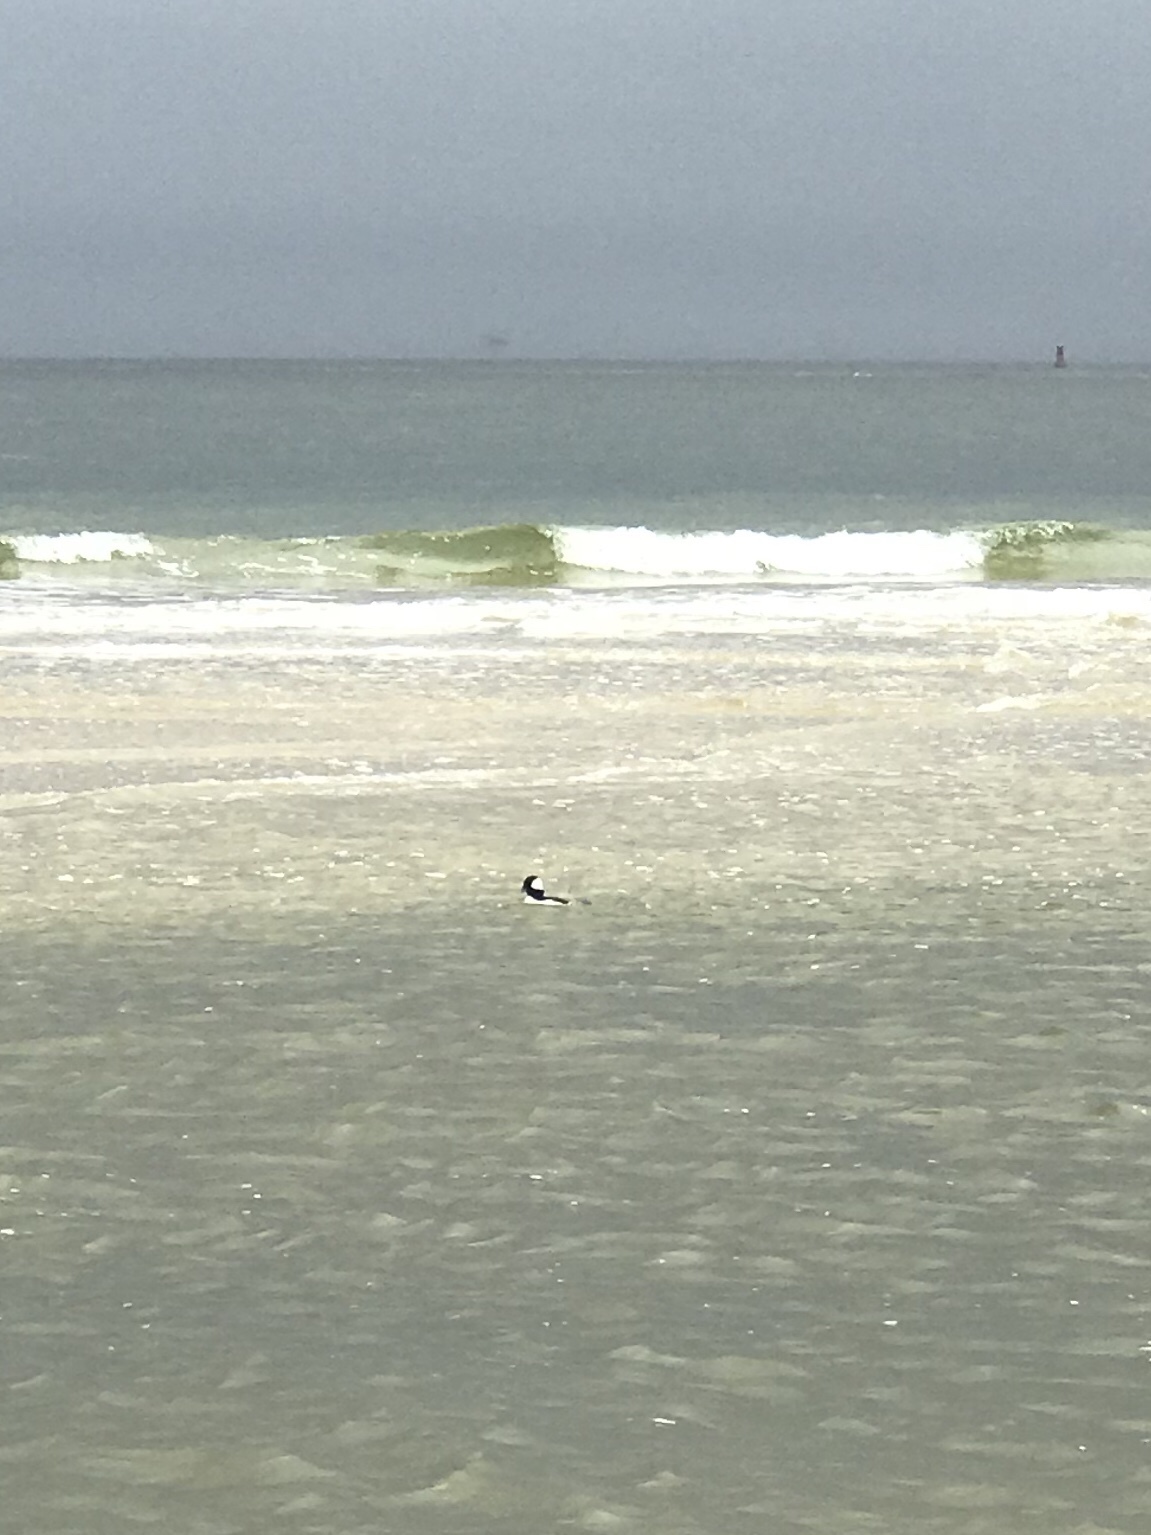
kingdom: Animalia
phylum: Chordata
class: Aves
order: Anseriformes
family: Anatidae
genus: Bucephala
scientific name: Bucephala albeola
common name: Bufflehead
